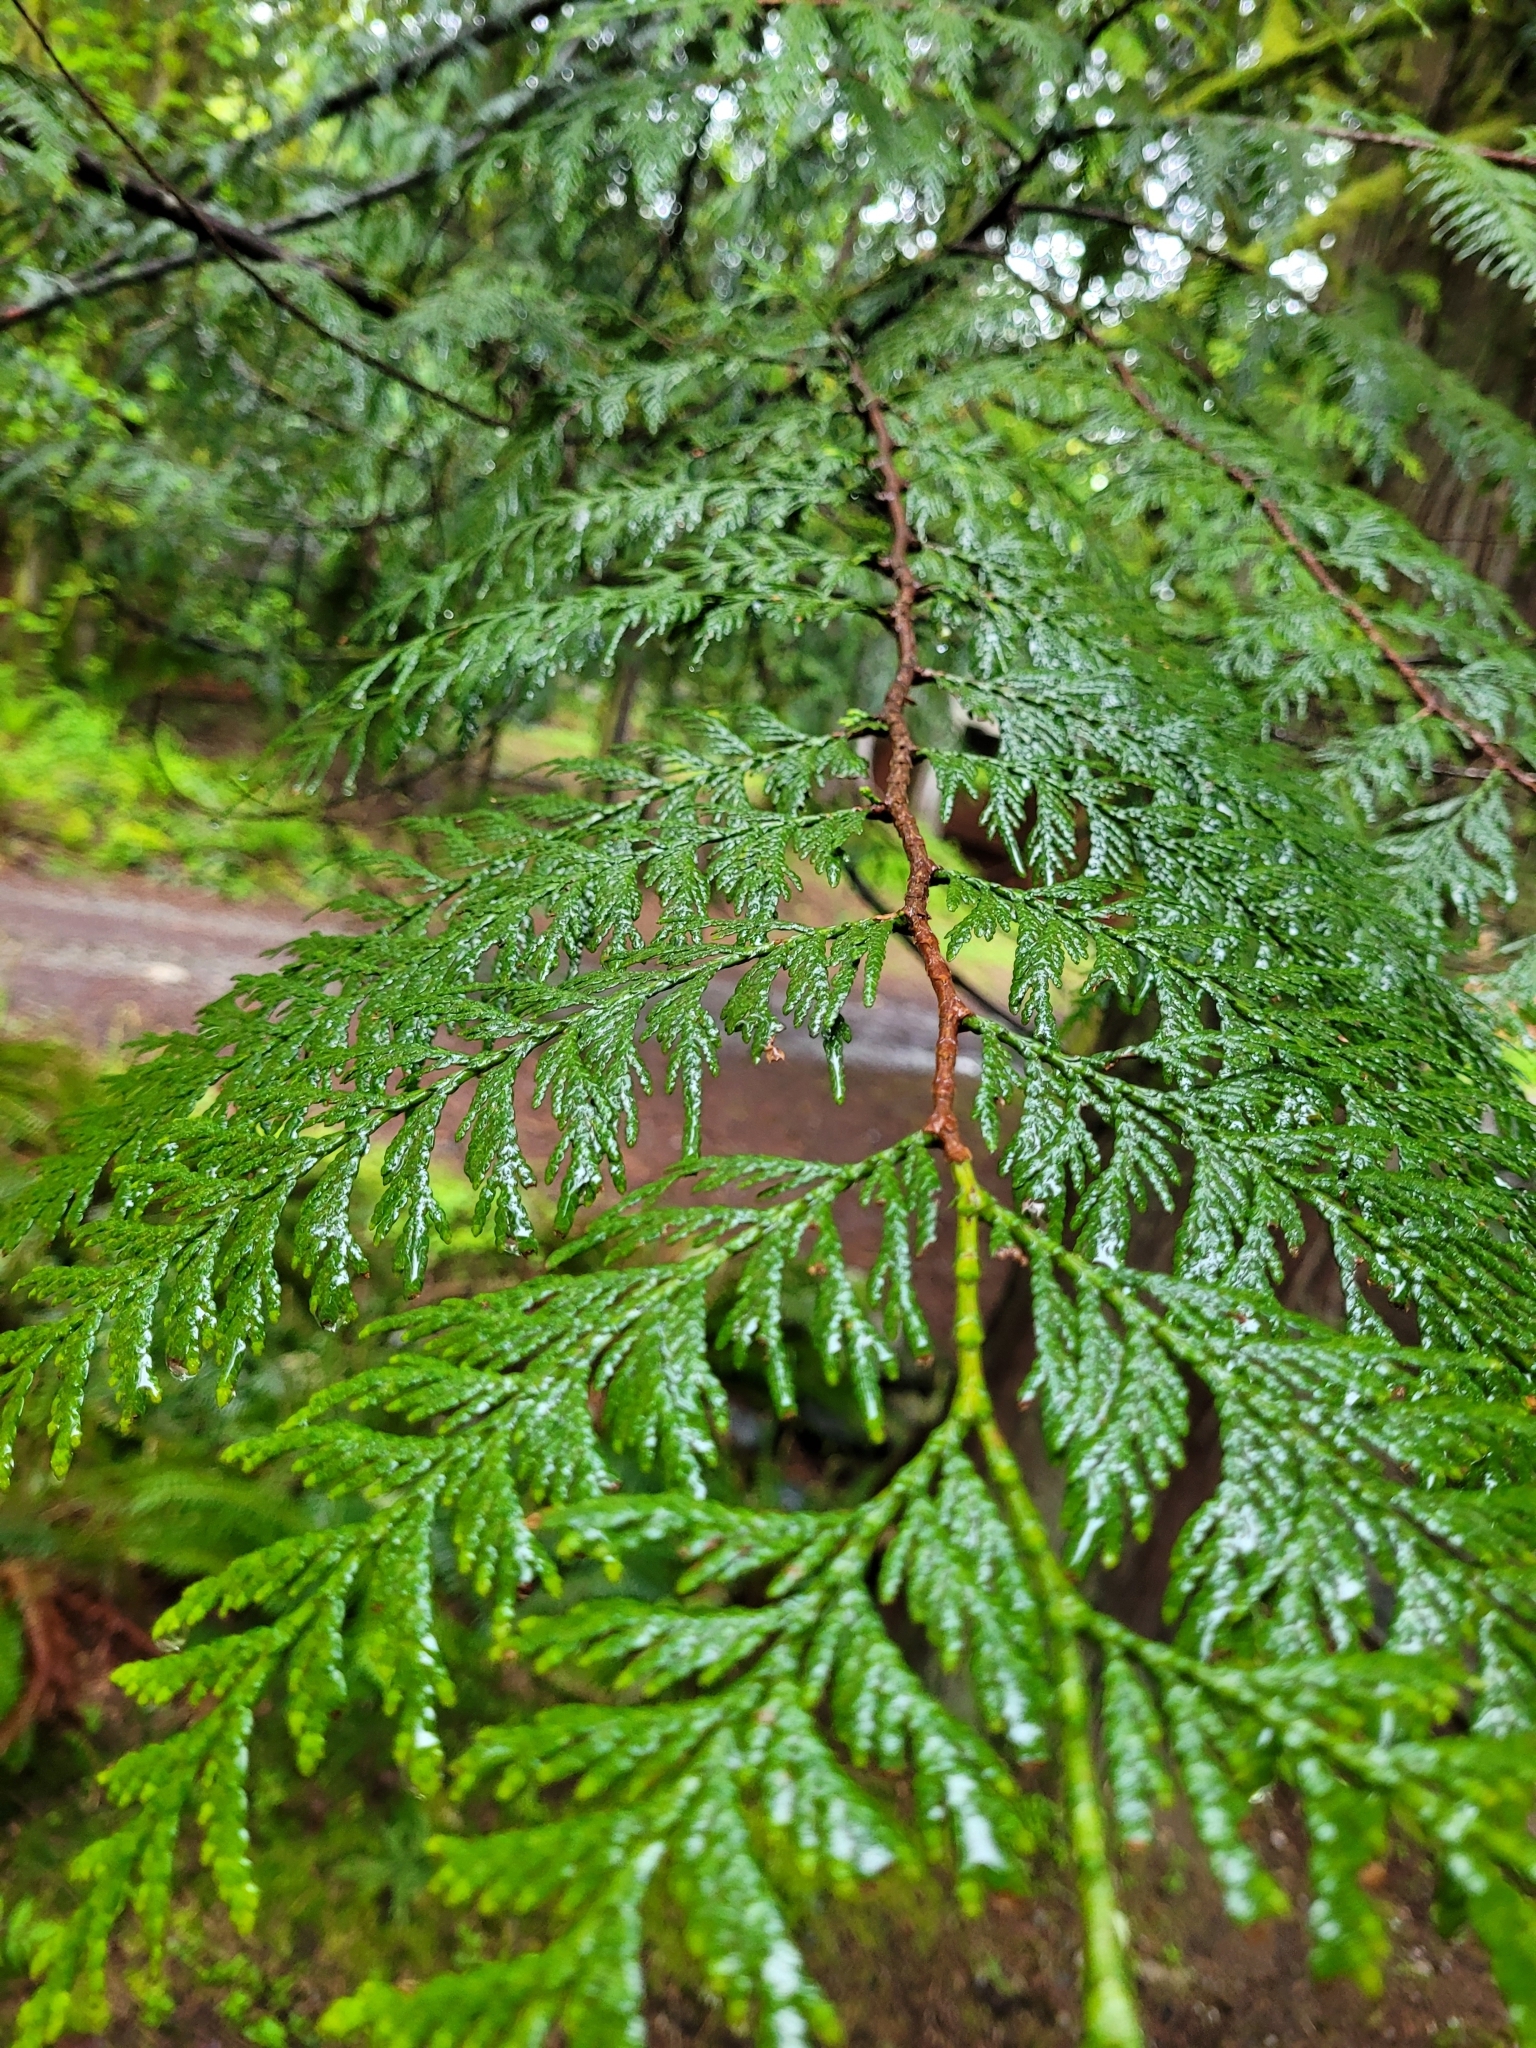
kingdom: Plantae
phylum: Tracheophyta
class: Pinopsida
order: Pinales
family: Cupressaceae
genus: Thuja
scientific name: Thuja plicata
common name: Western red-cedar
